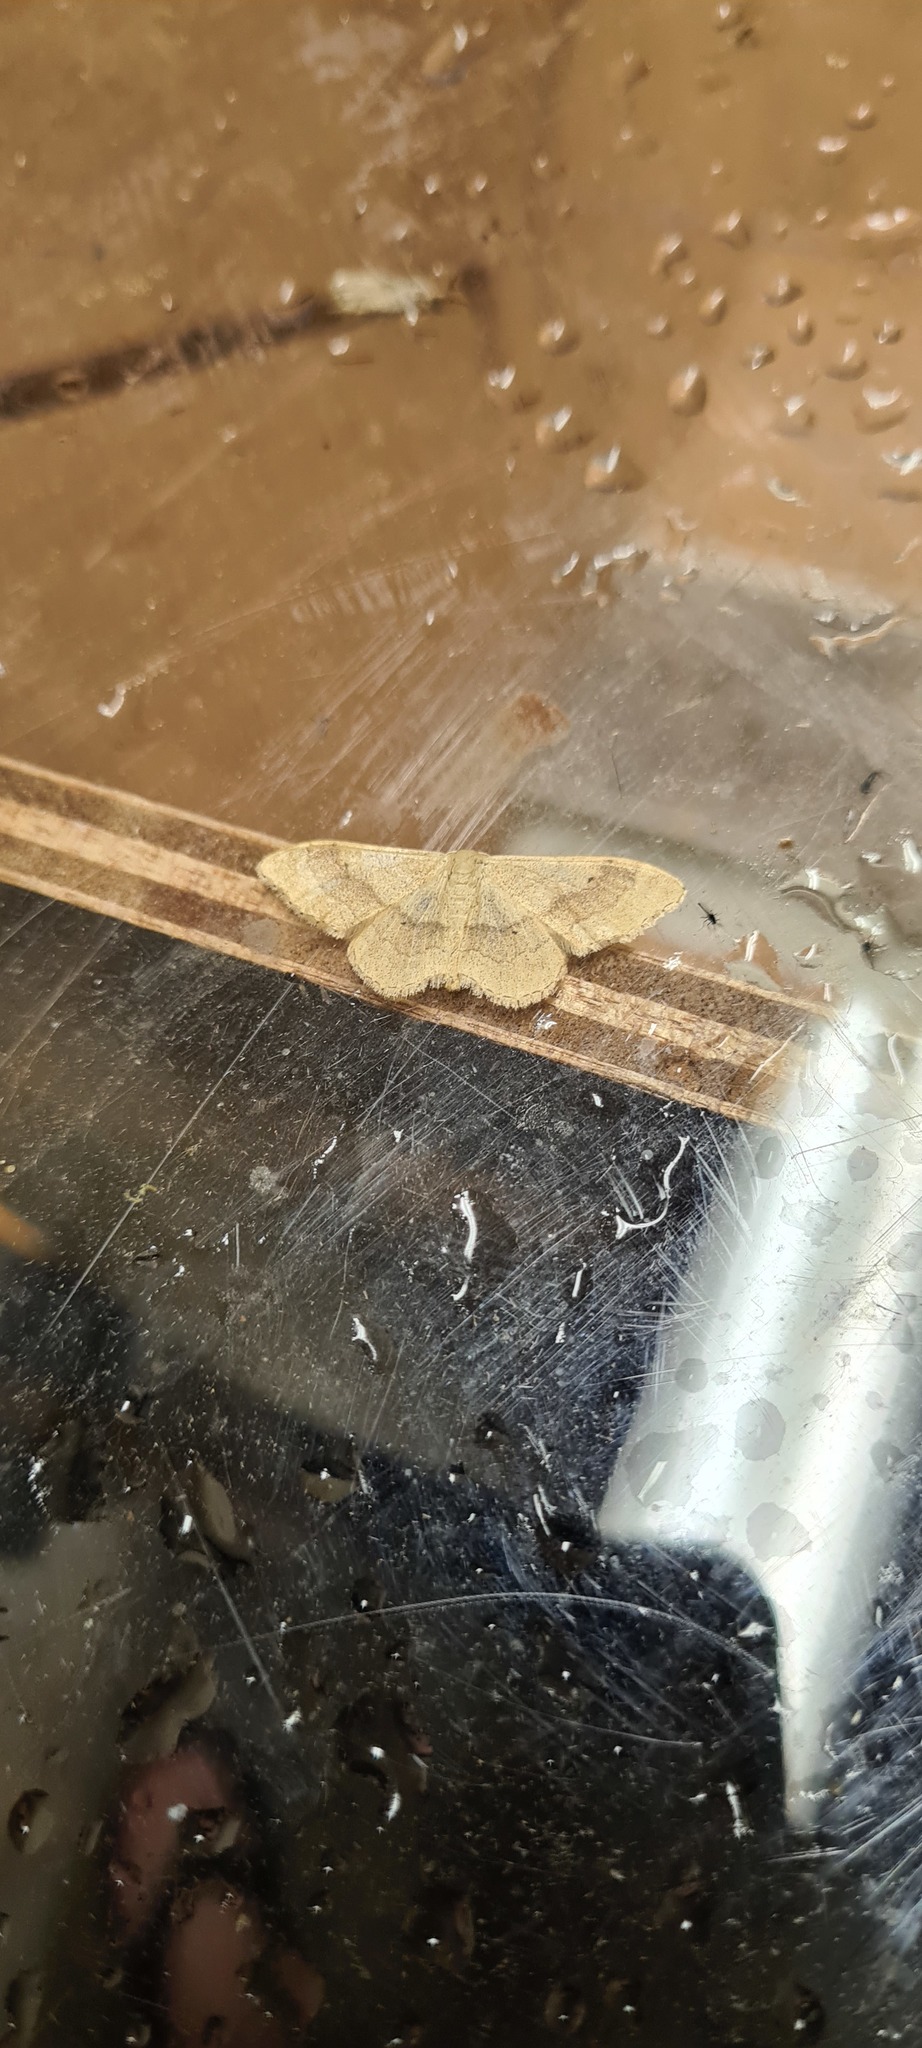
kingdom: Animalia
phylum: Arthropoda
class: Insecta
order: Lepidoptera
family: Geometridae
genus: Idaea
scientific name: Idaea aversata
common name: Riband wave
